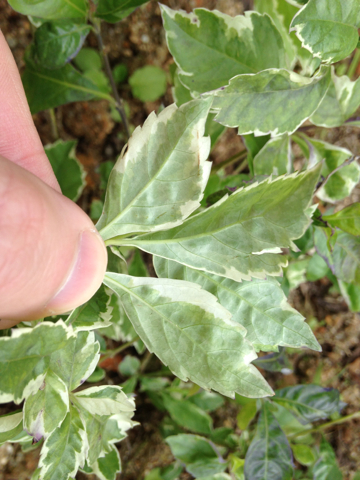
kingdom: Plantae
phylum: Tracheophyta
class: Magnoliopsida
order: Lamiales
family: Verbenaceae
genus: Duranta
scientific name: Duranta erecta
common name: Golden dewdrops
